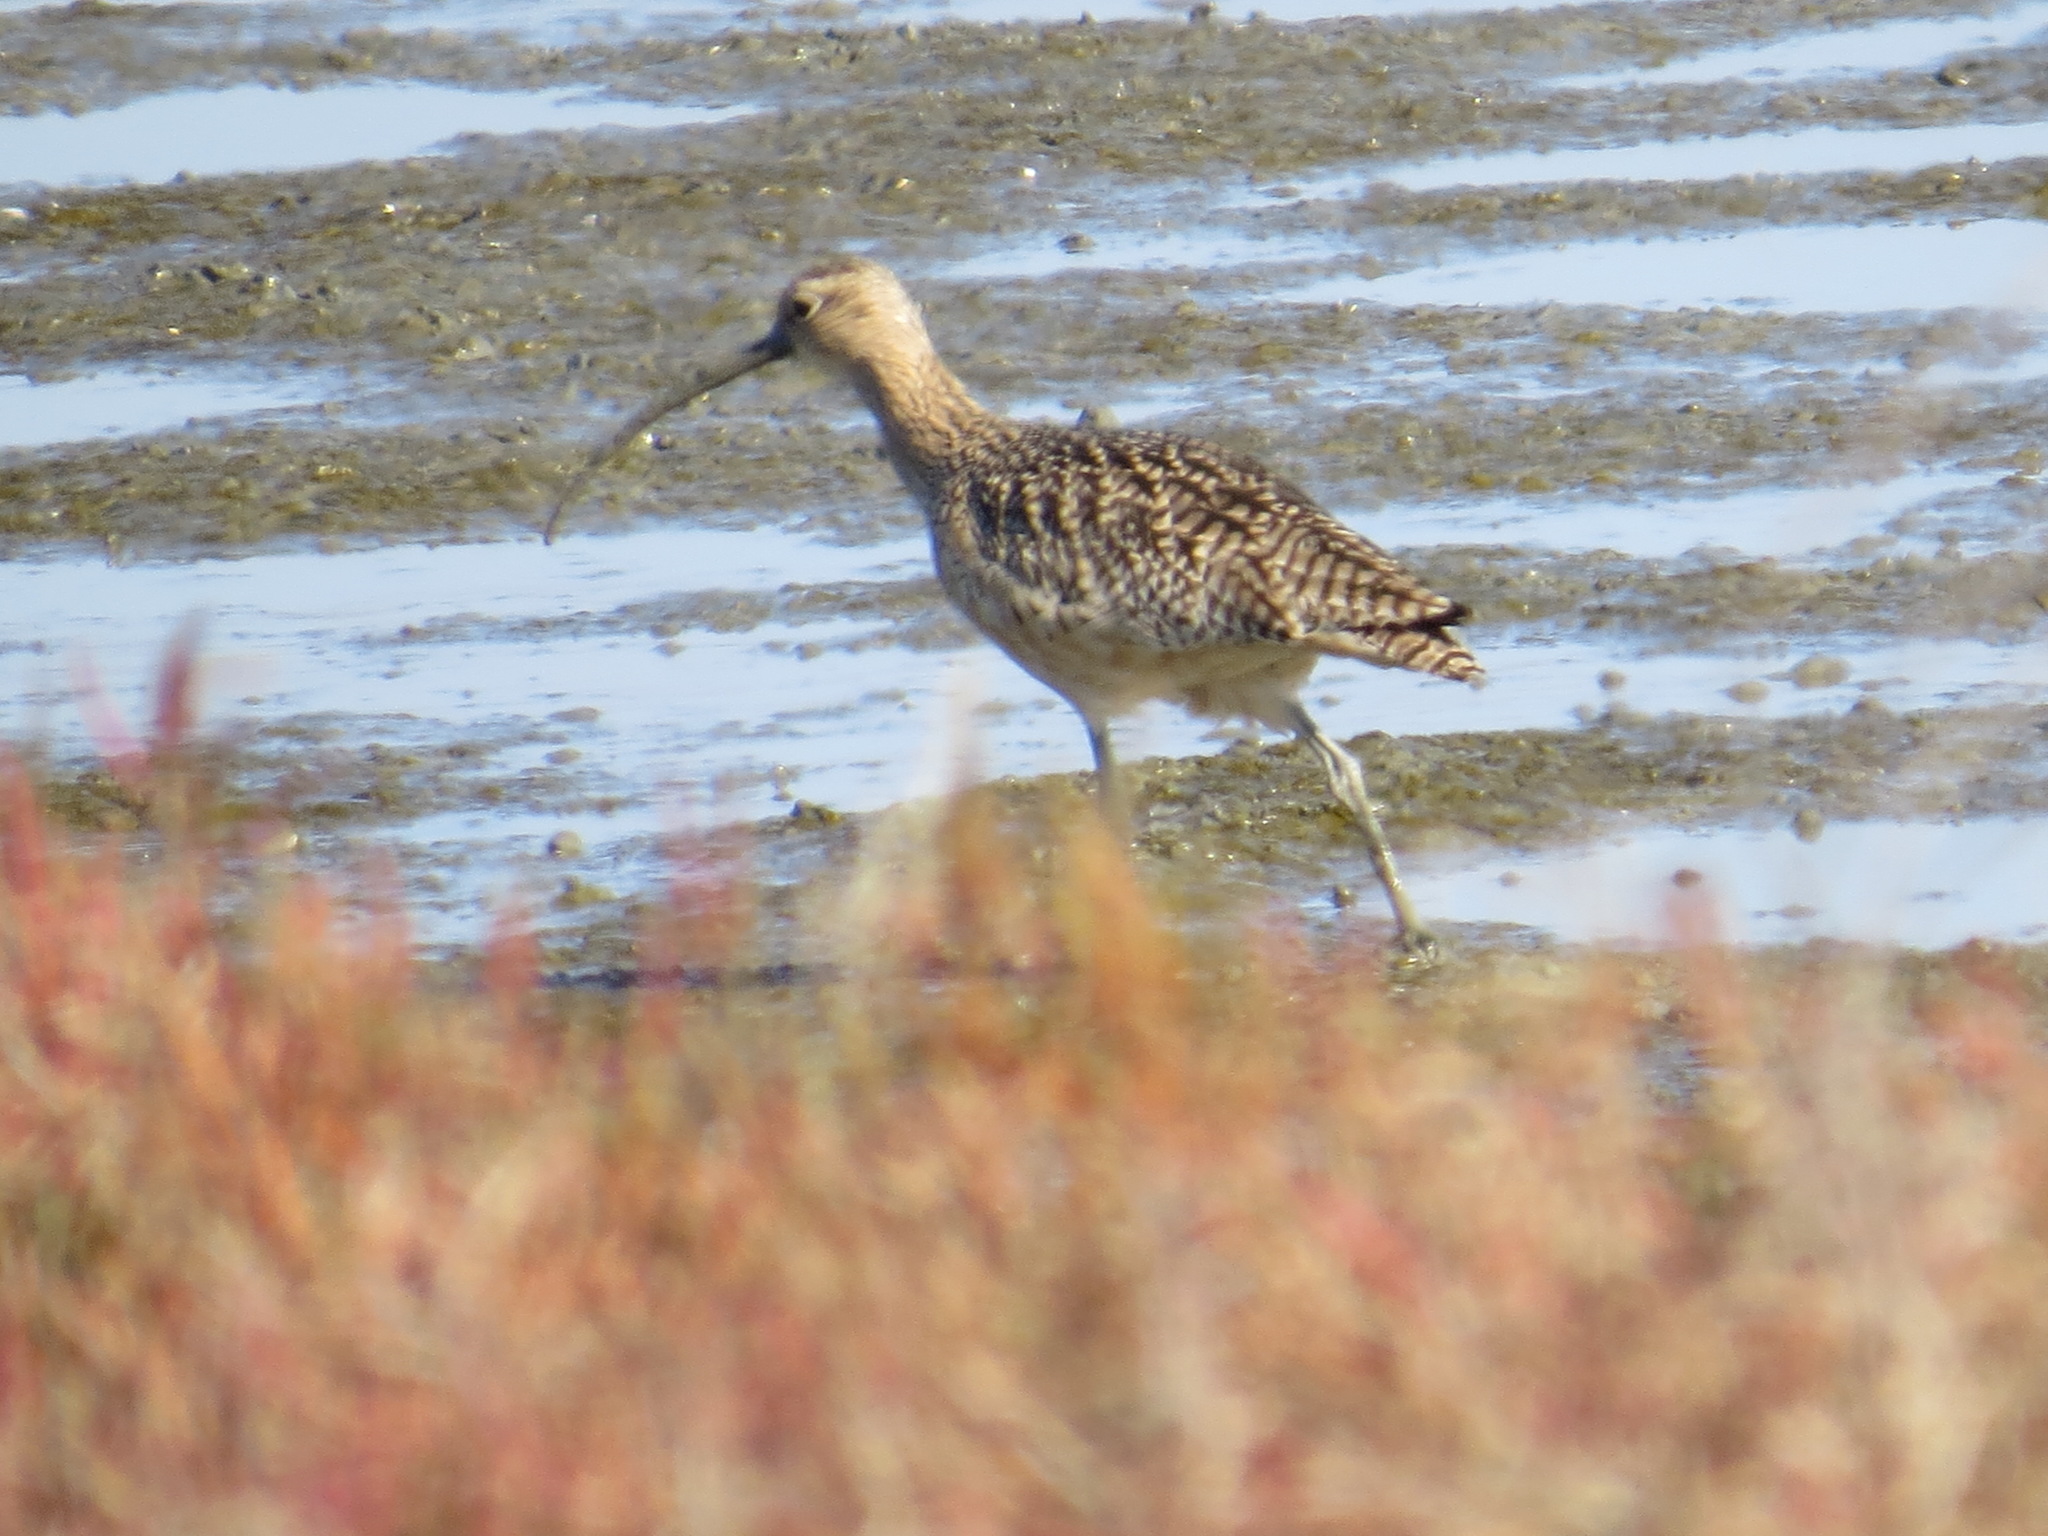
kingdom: Animalia
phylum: Chordata
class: Aves
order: Charadriiformes
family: Scolopacidae
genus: Numenius
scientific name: Numenius americanus
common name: Long-billed curlew
